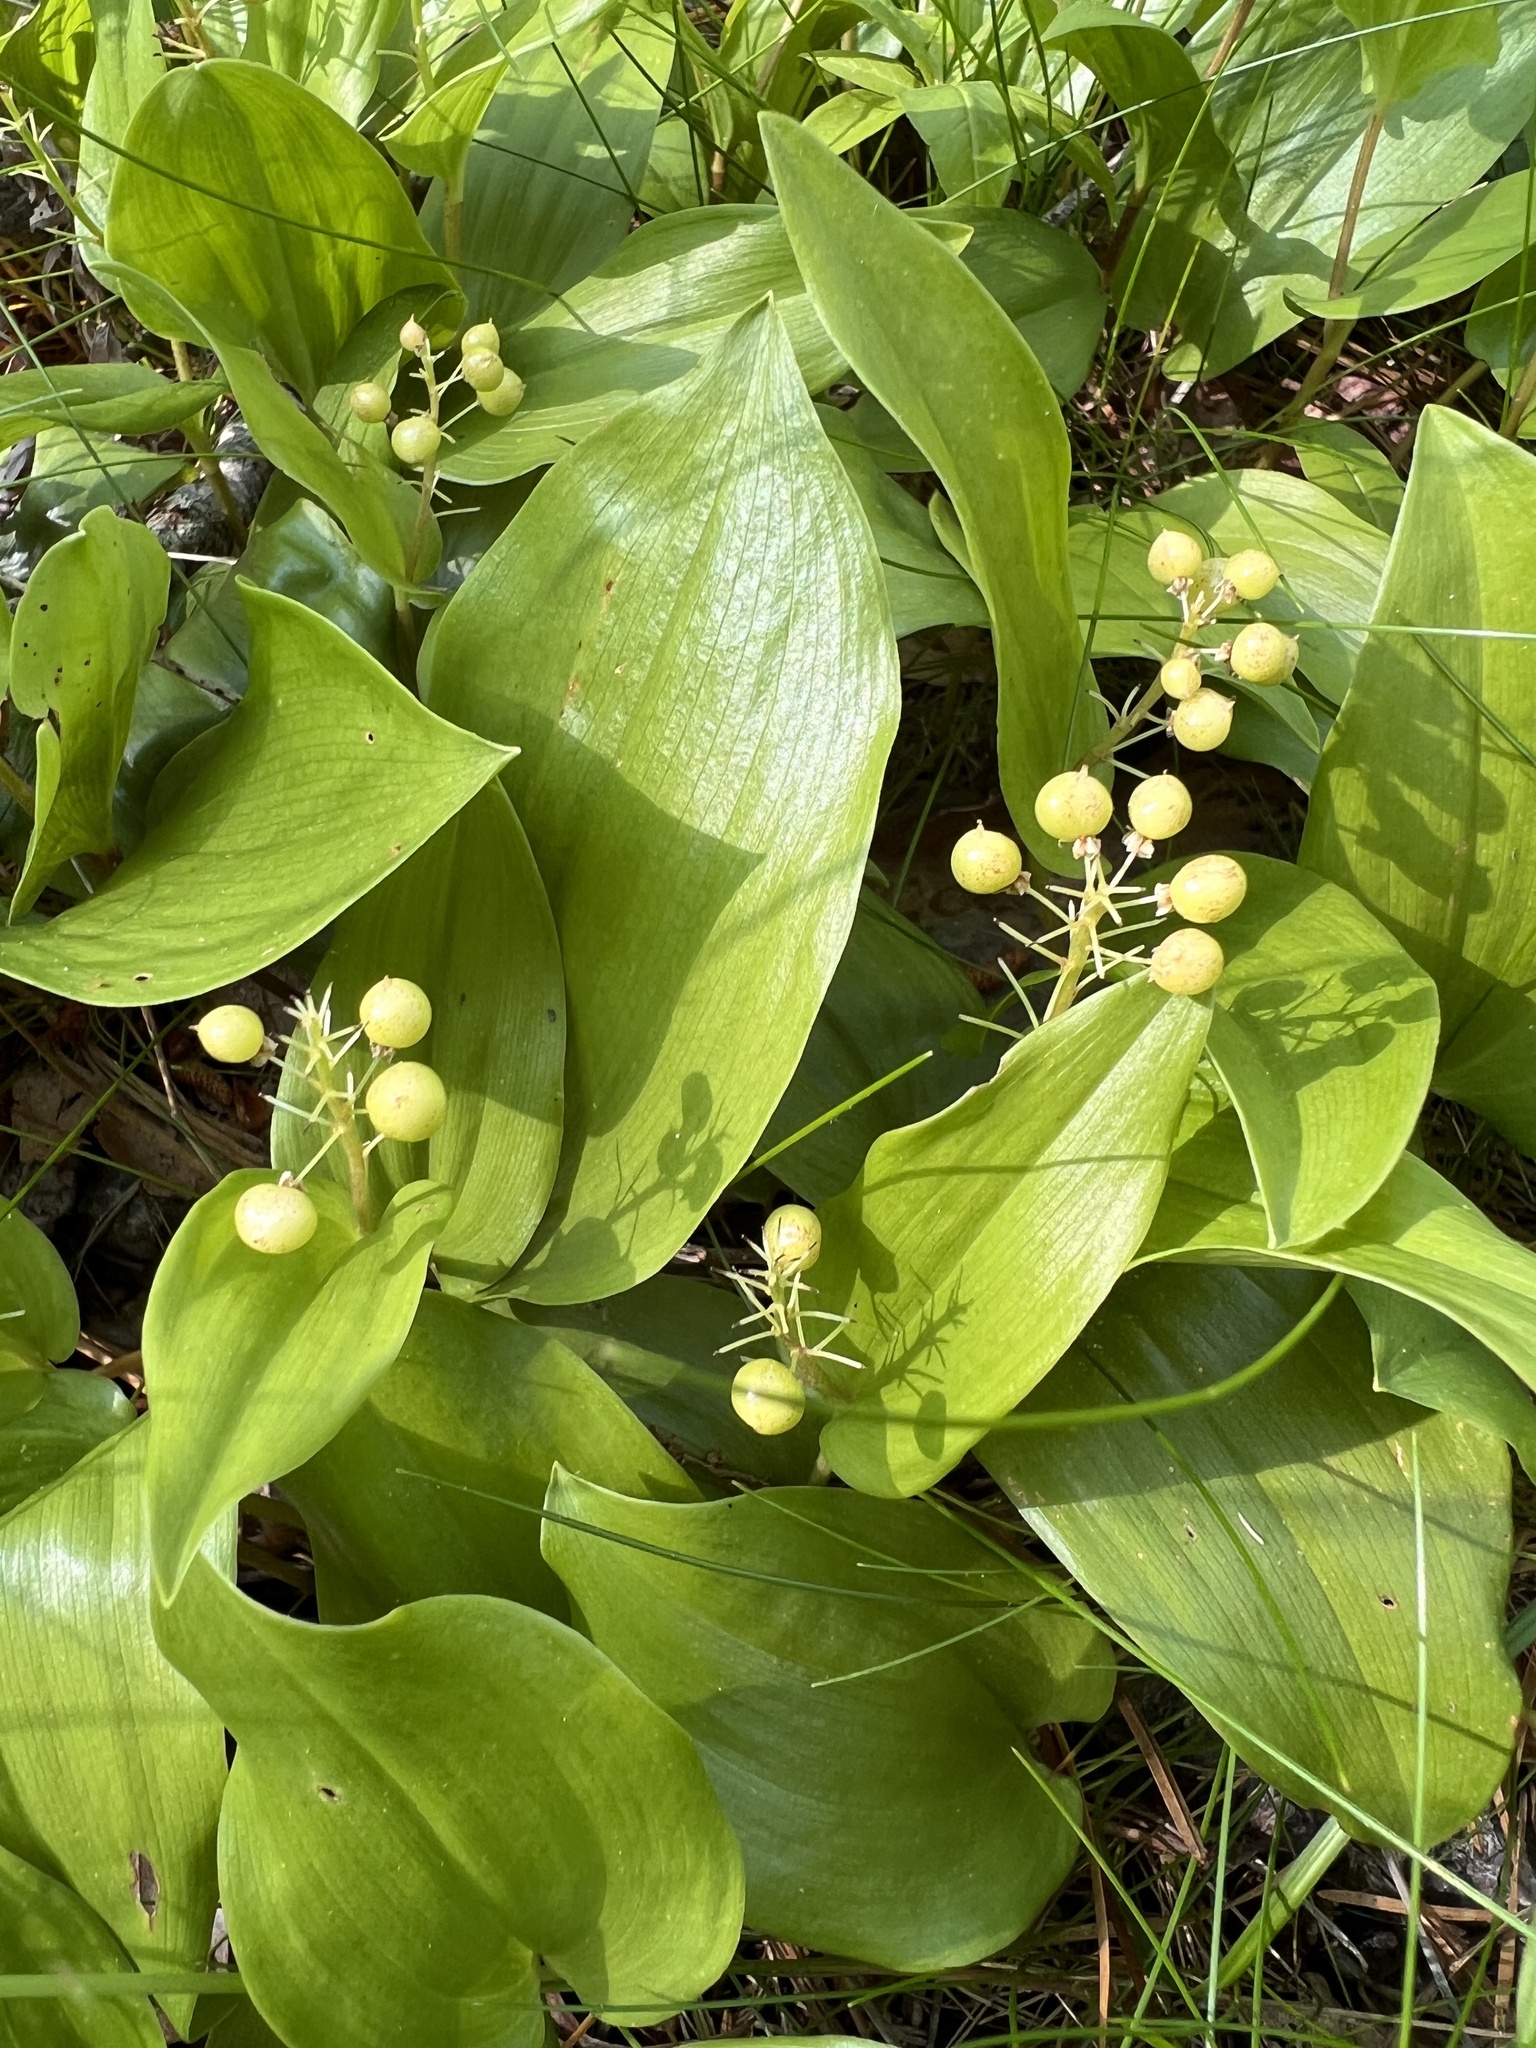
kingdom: Plantae
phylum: Tracheophyta
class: Liliopsida
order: Asparagales
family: Asparagaceae
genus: Maianthemum
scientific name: Maianthemum canadense
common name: False lily-of-the-valley
